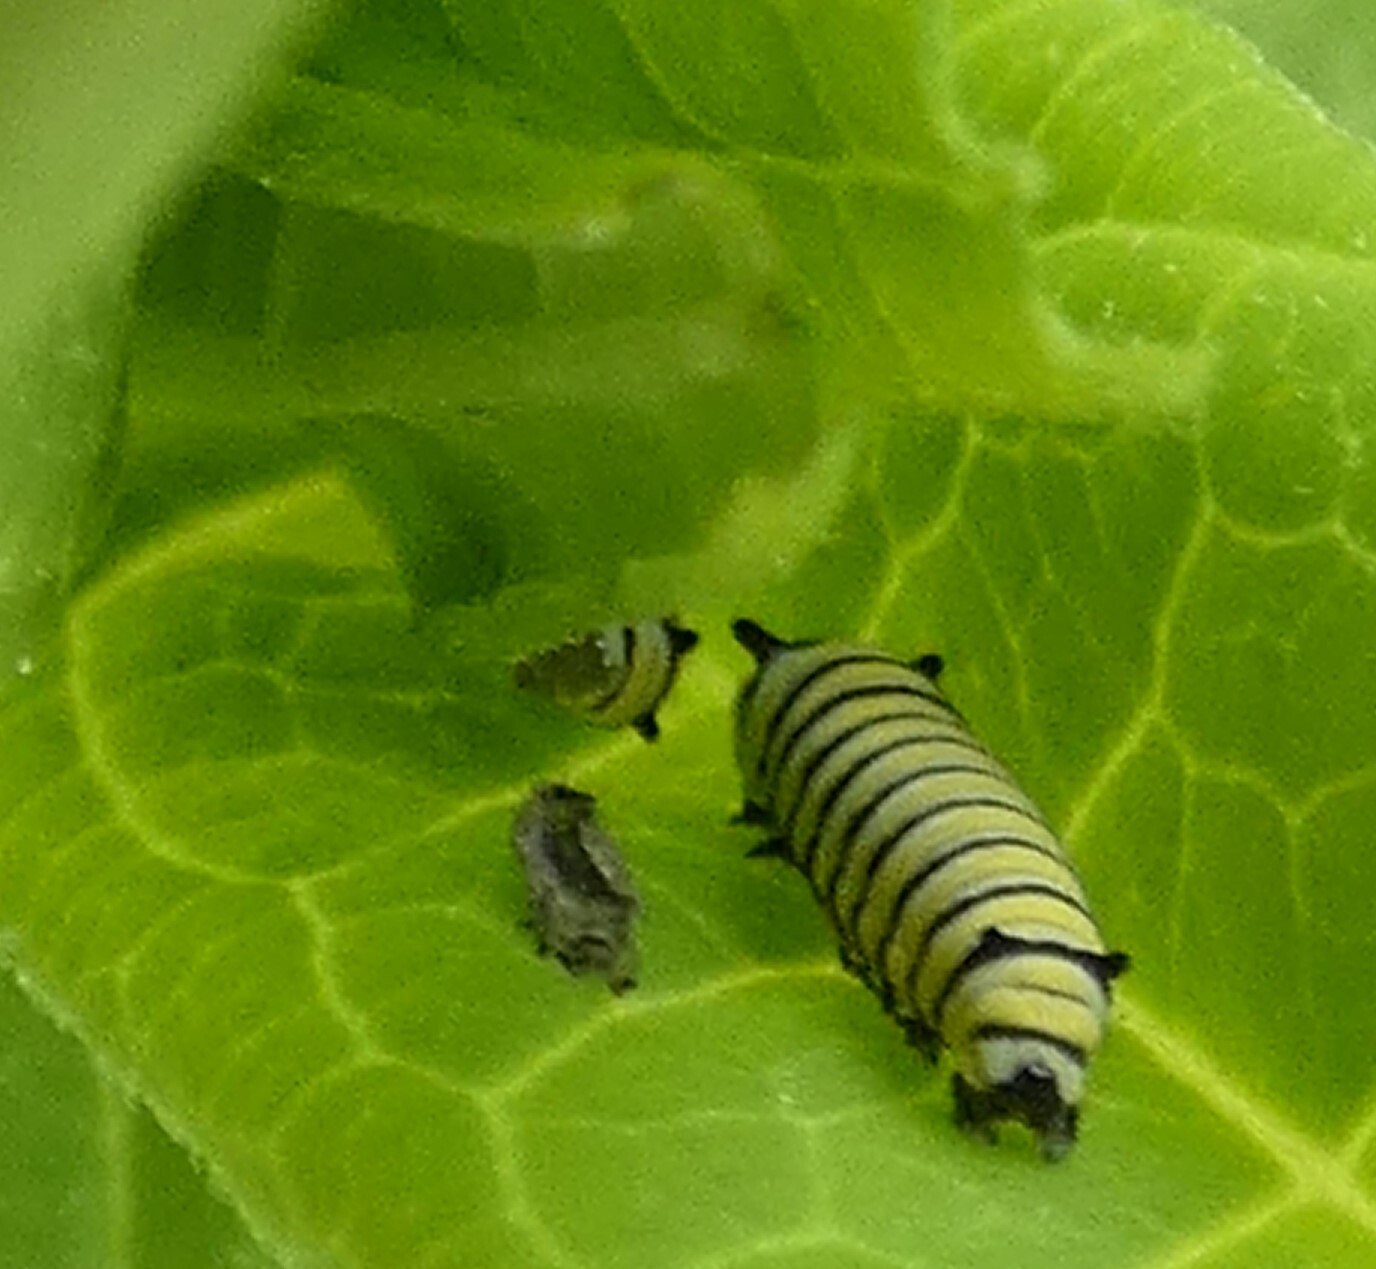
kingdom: Animalia
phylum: Arthropoda
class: Insecta
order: Lepidoptera
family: Nymphalidae
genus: Danaus
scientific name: Danaus plexippus
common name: Monarch
